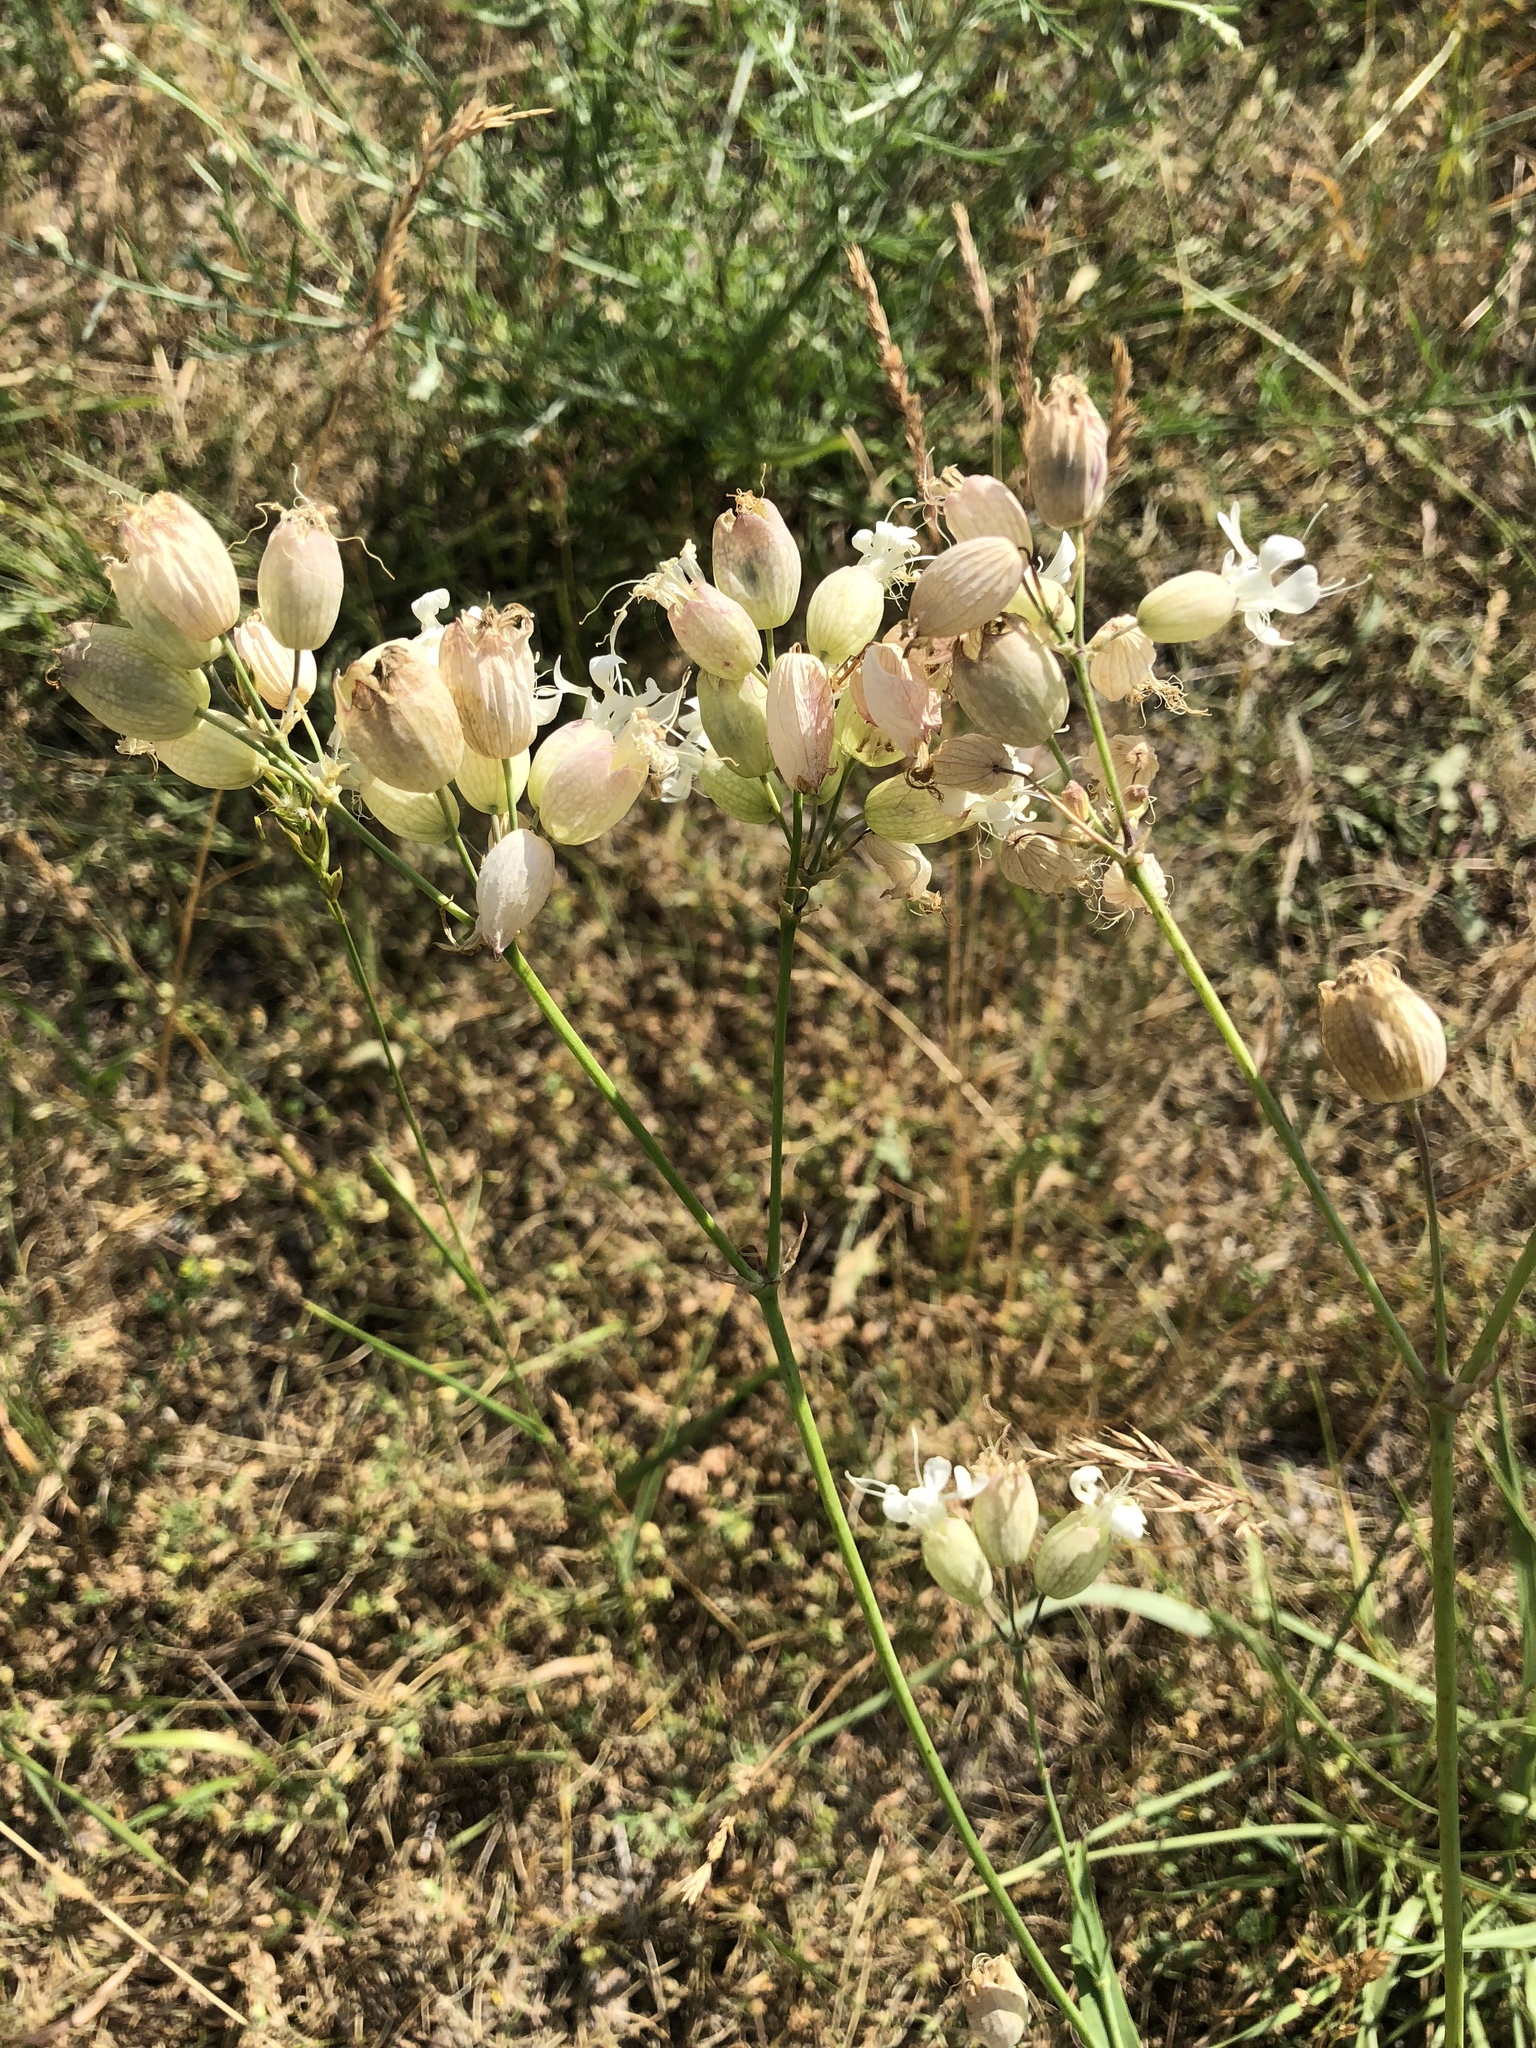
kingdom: Plantae
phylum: Tracheophyta
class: Magnoliopsida
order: Caryophyllales
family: Caryophyllaceae
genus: Silene
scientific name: Silene vulgaris
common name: Bladder campion
